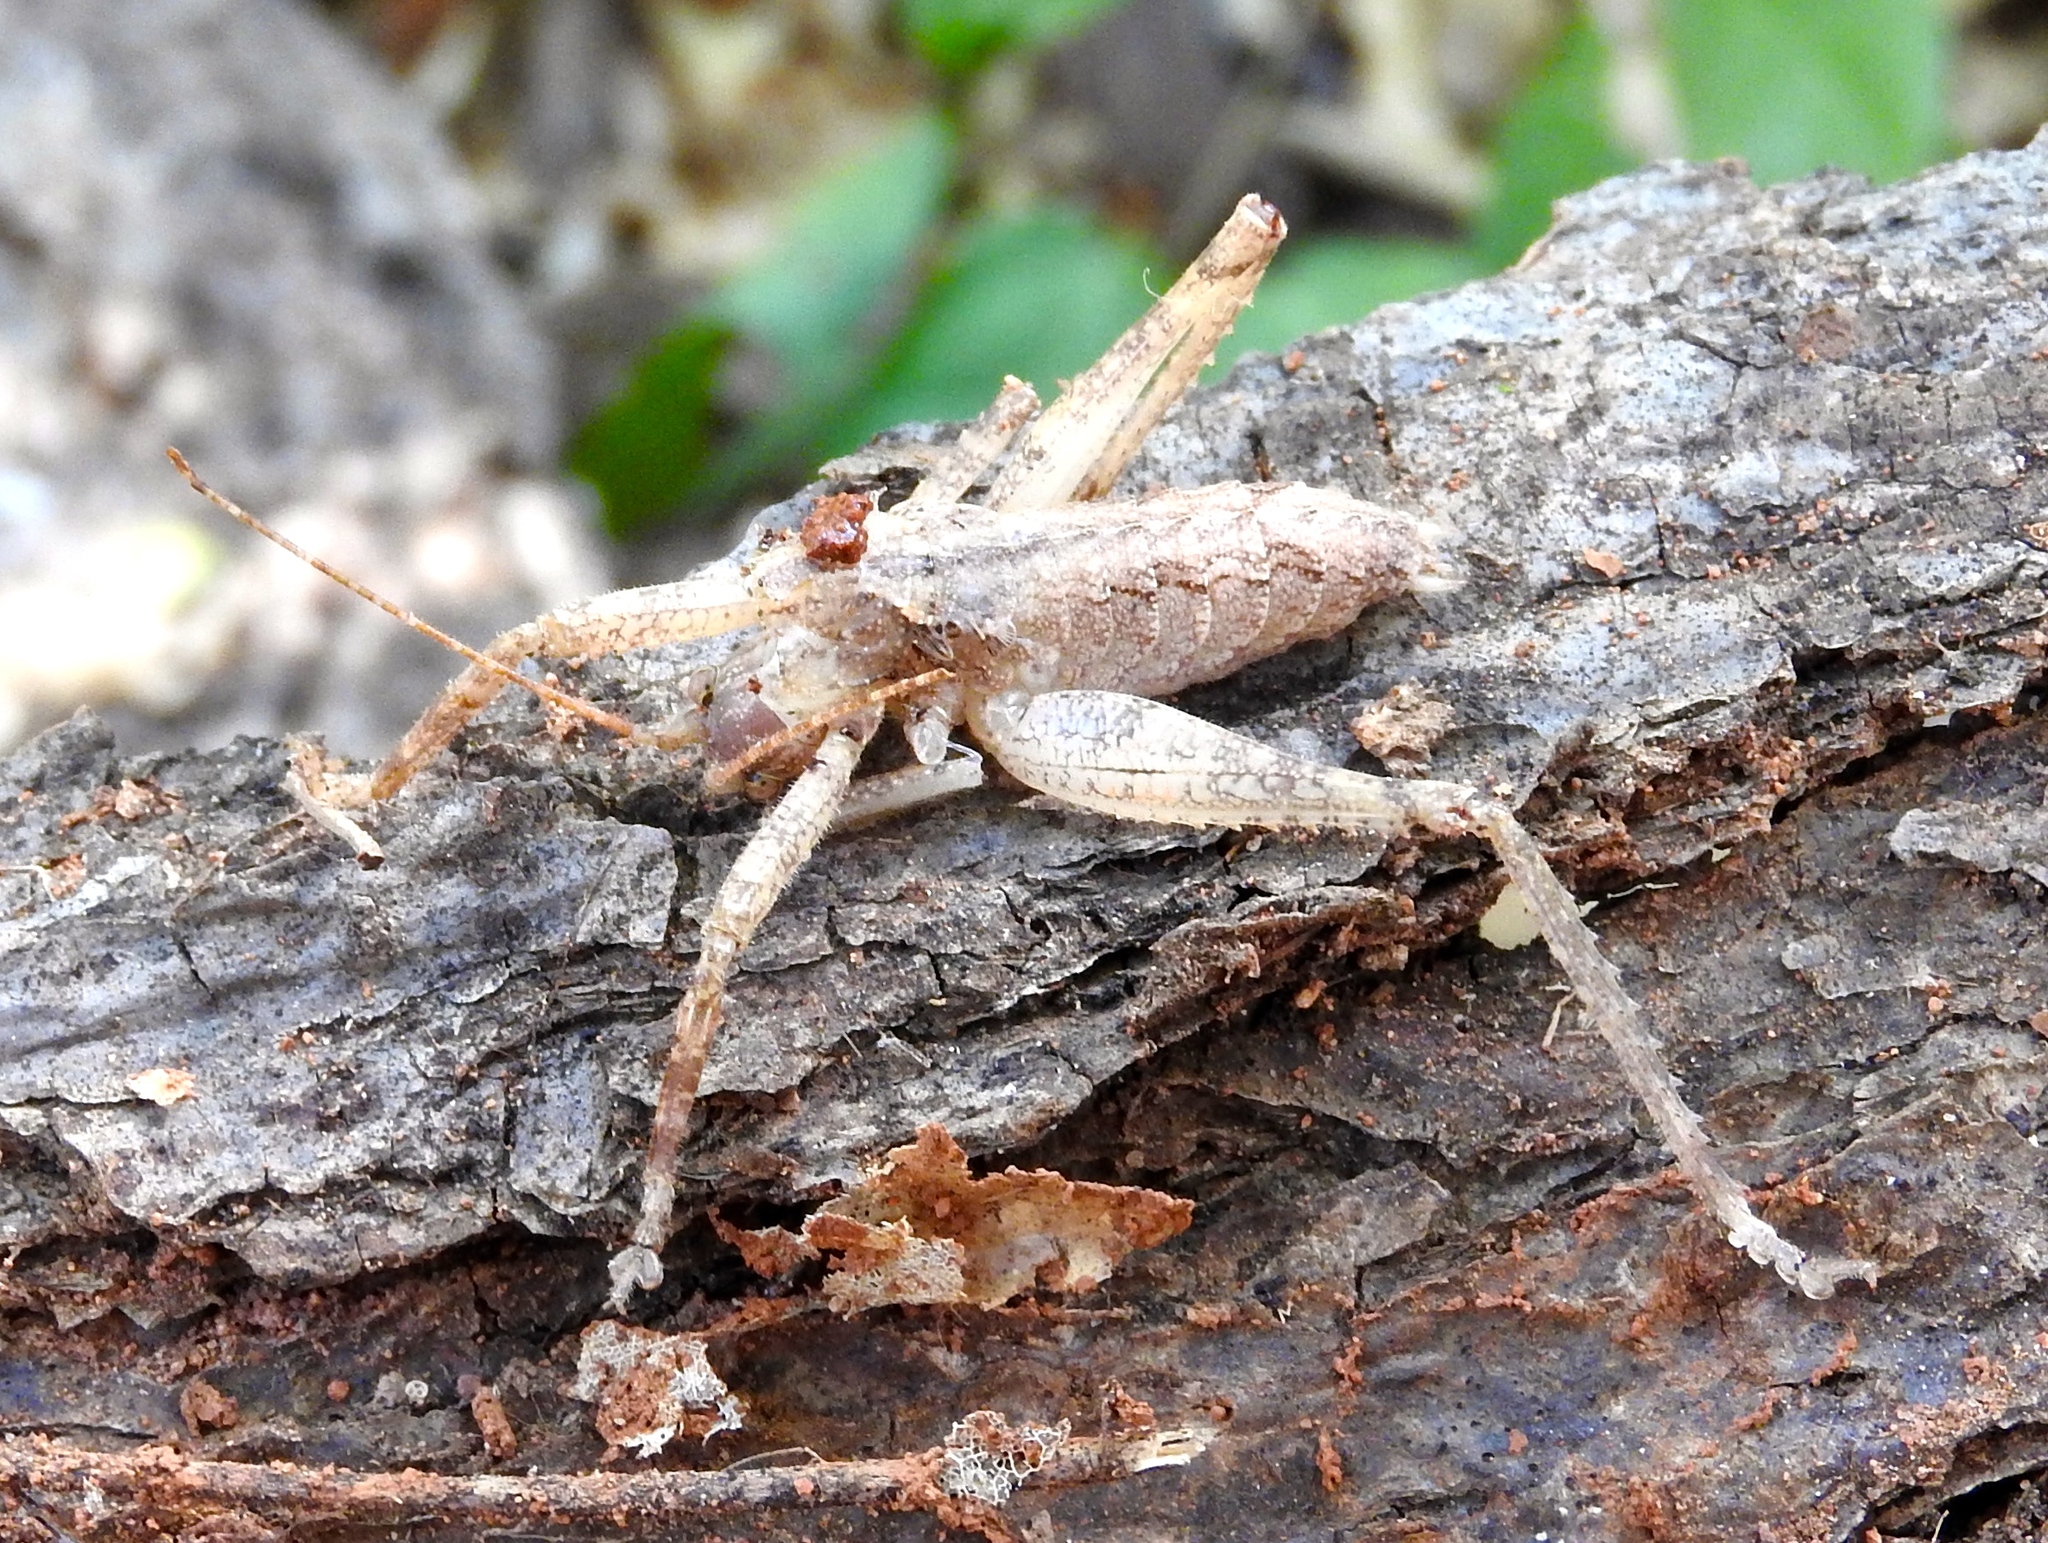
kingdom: Animalia
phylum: Arthropoda
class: Insecta
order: Orthoptera
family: Tettigoniidae
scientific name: Tettigoniidae
